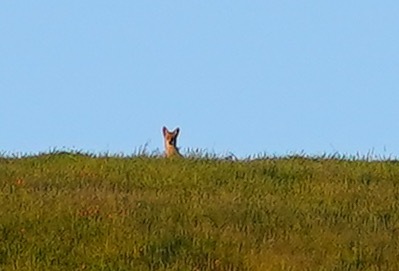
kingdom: Animalia
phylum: Chordata
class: Mammalia
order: Carnivora
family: Canidae
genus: Canis
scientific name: Canis latrans
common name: Coyote
